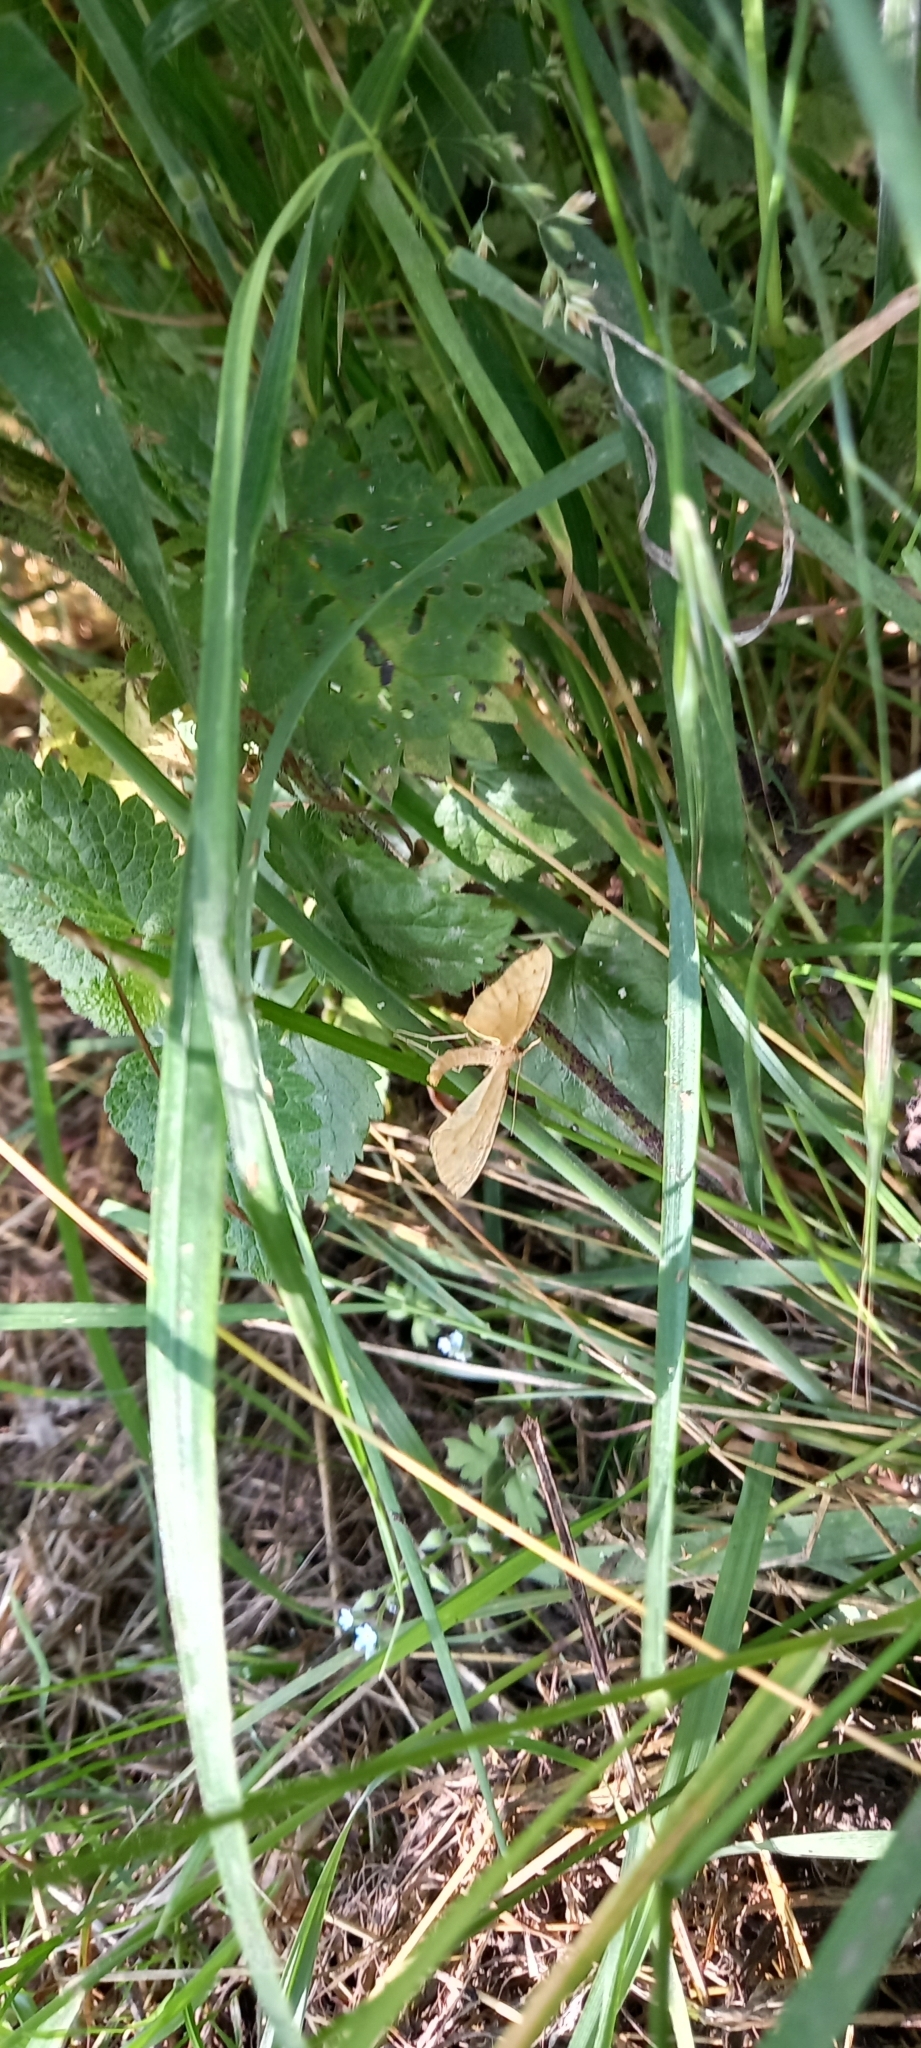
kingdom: Animalia
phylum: Arthropoda
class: Insecta
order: Lepidoptera
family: Geometridae
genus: Eulithis
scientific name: Eulithis pyraliata
